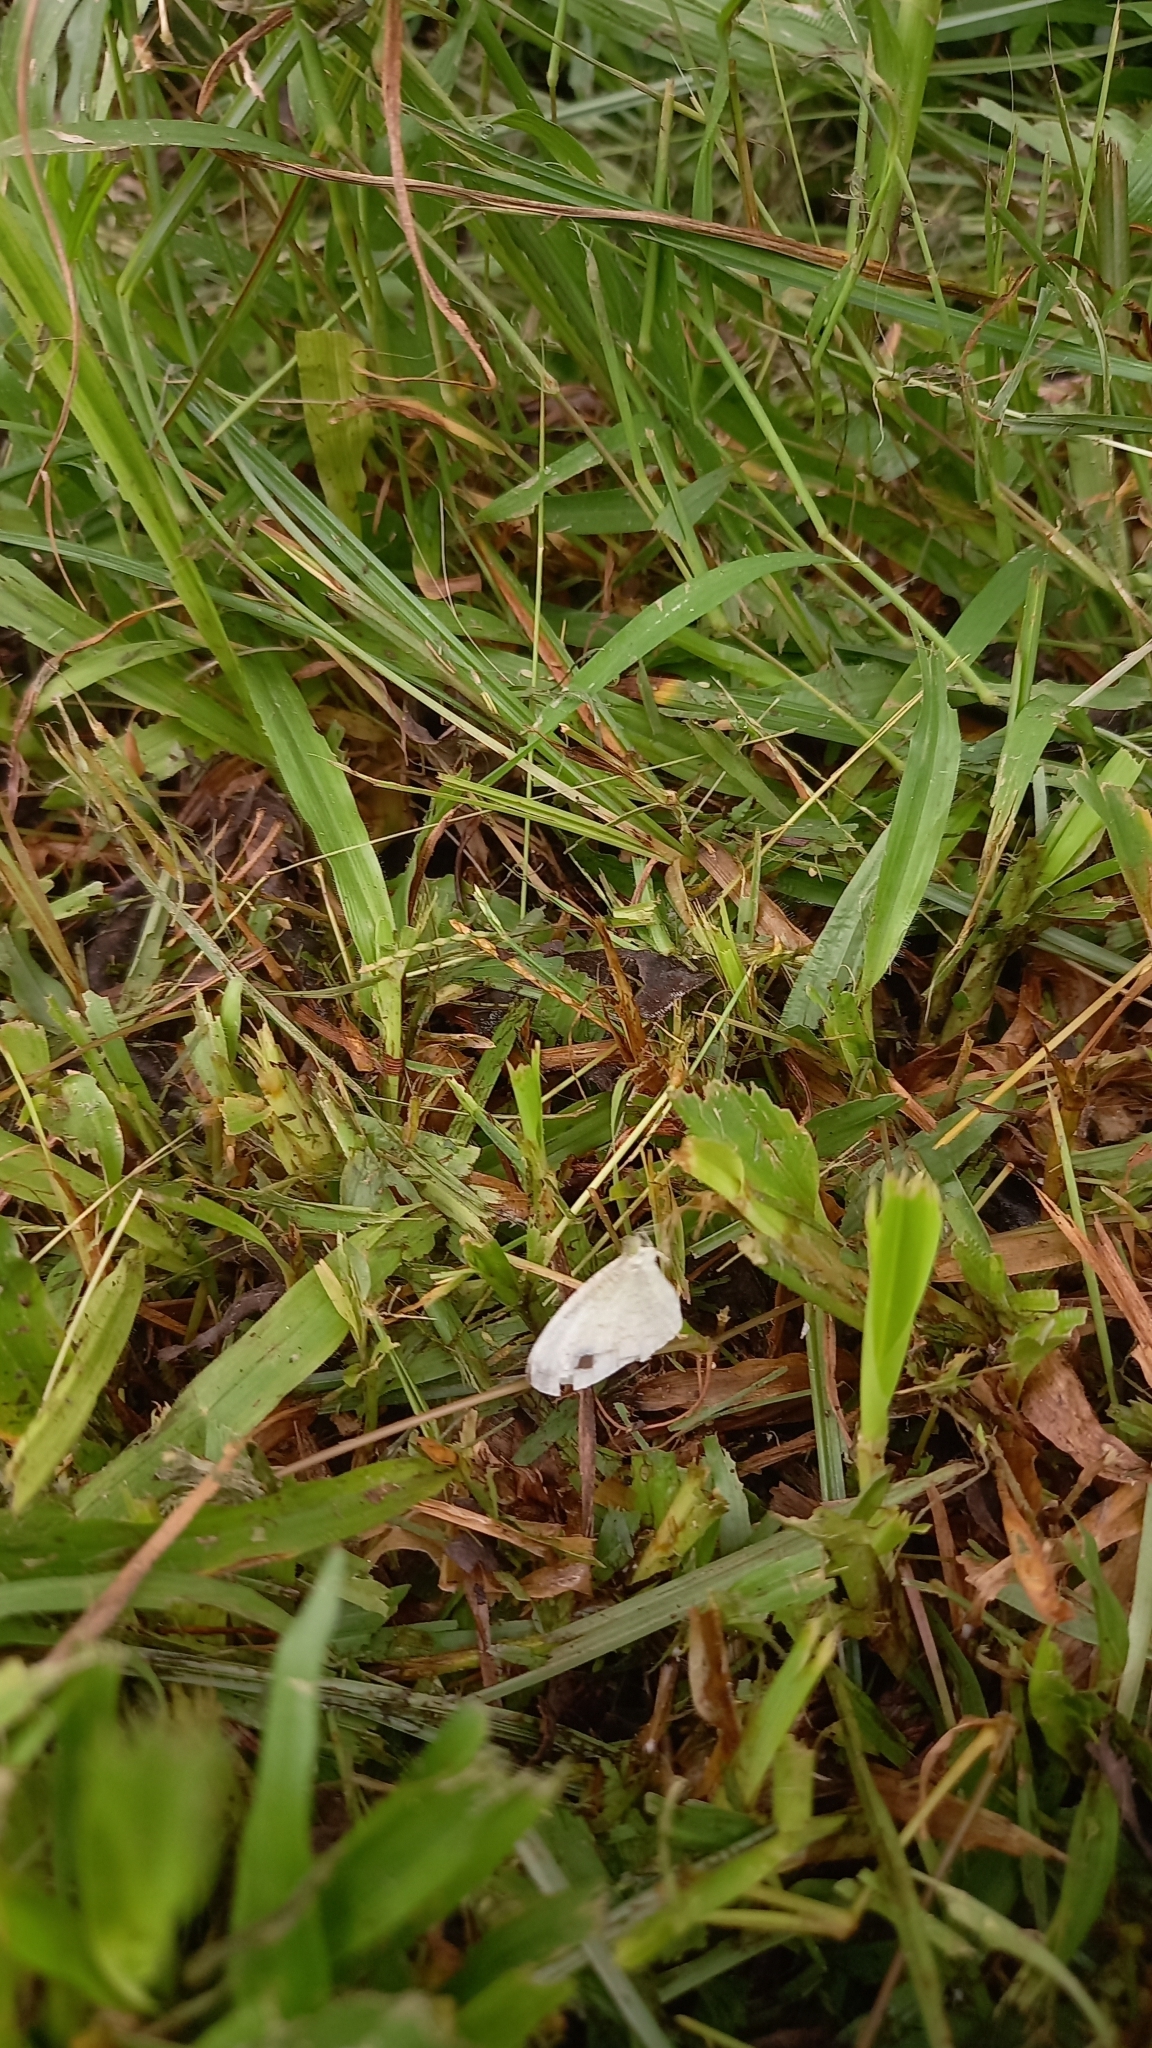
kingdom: Animalia
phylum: Arthropoda
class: Insecta
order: Lepidoptera
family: Pieridae
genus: Leptosia
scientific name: Leptosia nina
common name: Psyche
